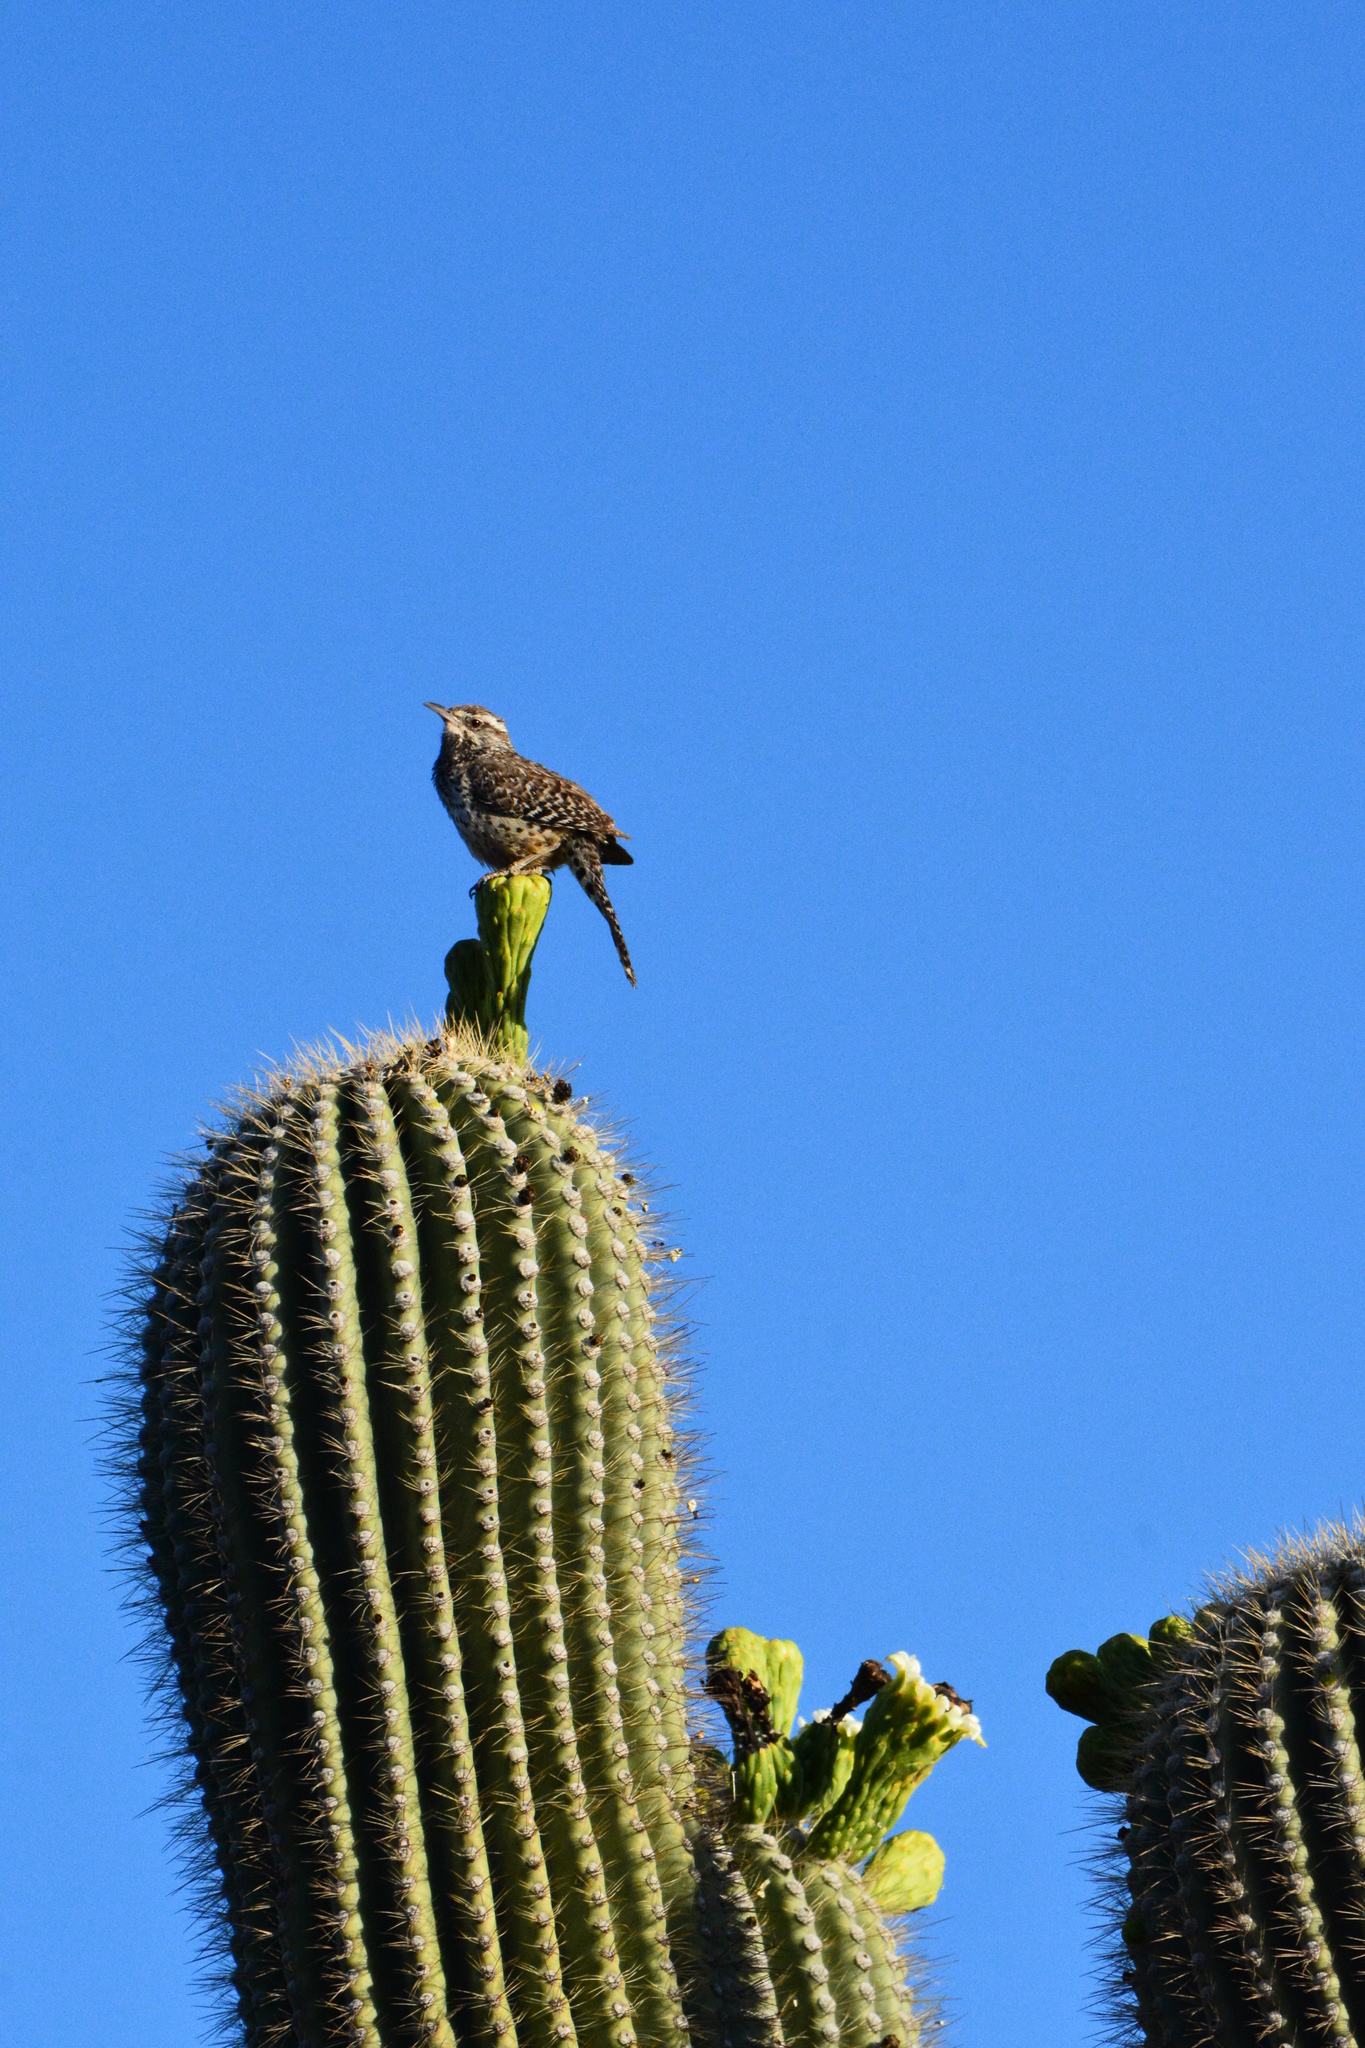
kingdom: Animalia
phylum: Chordata
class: Aves
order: Passeriformes
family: Troglodytidae
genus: Campylorhynchus
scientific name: Campylorhynchus brunneicapillus
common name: Cactus wren
